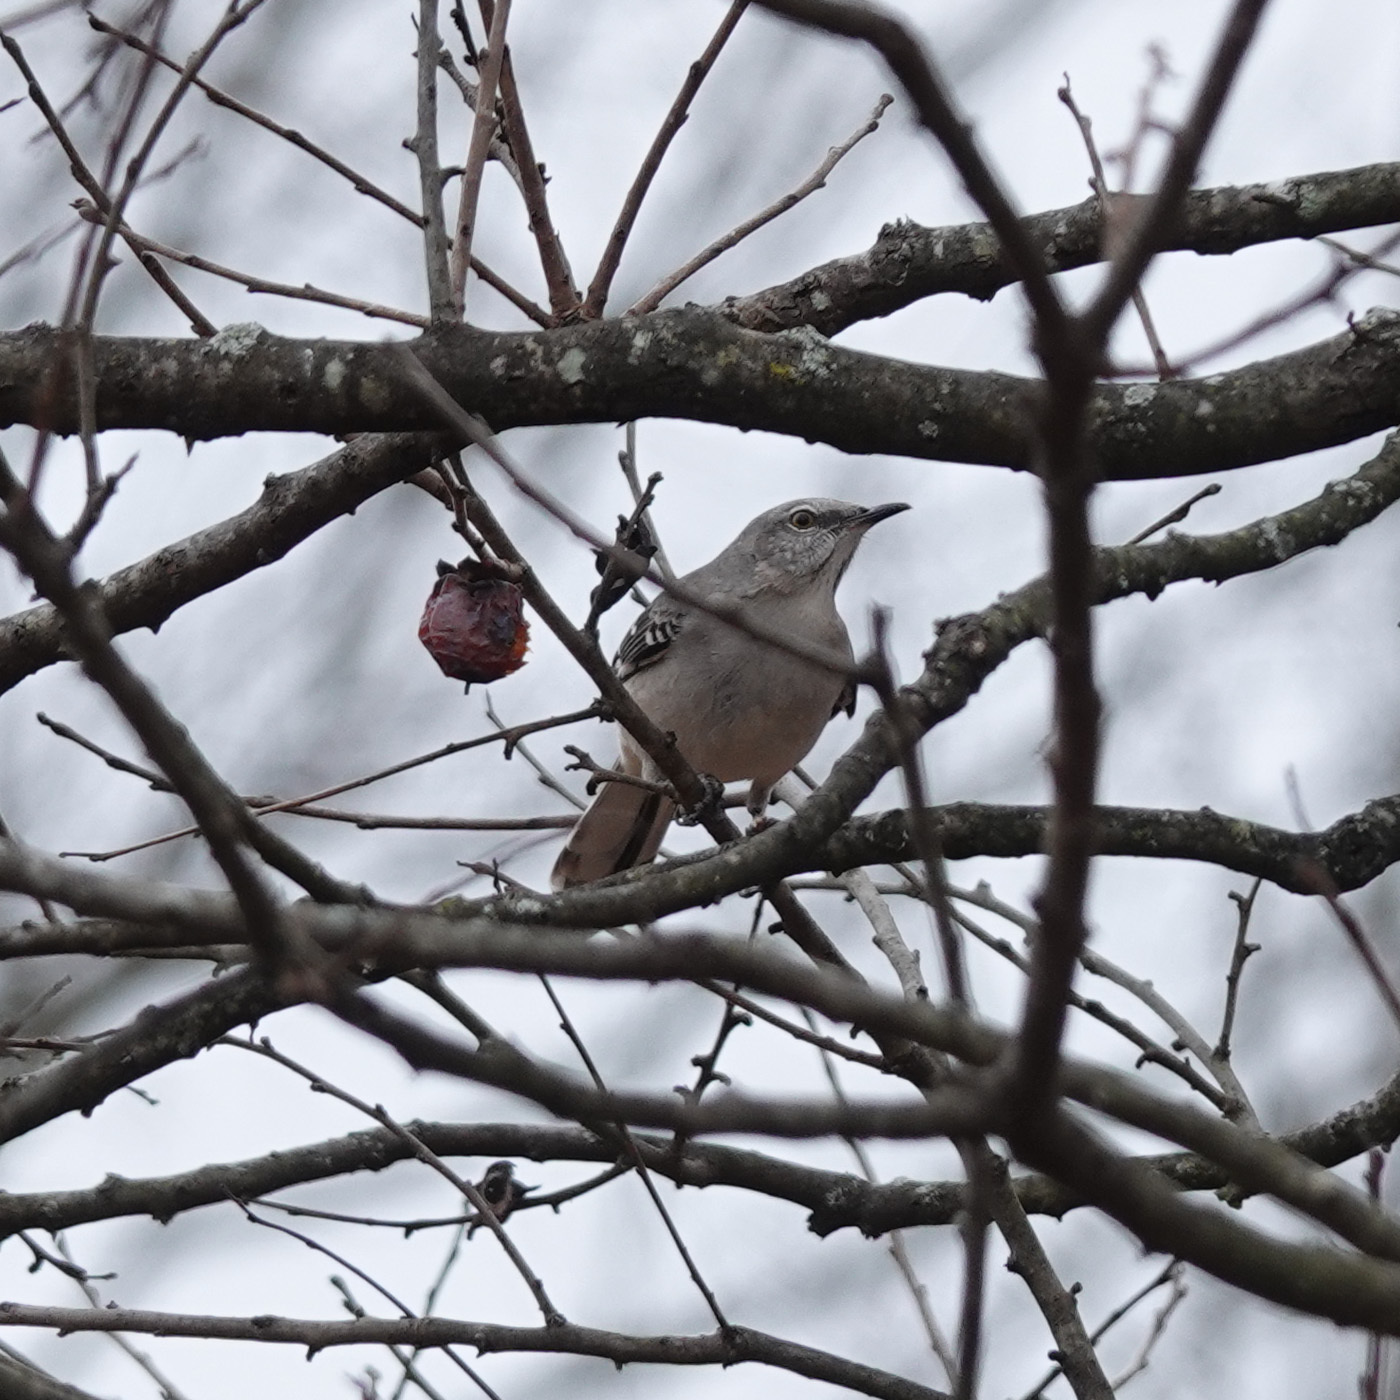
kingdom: Animalia
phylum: Chordata
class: Aves
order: Passeriformes
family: Mimidae
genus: Mimus
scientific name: Mimus polyglottos
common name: Northern mockingbird
